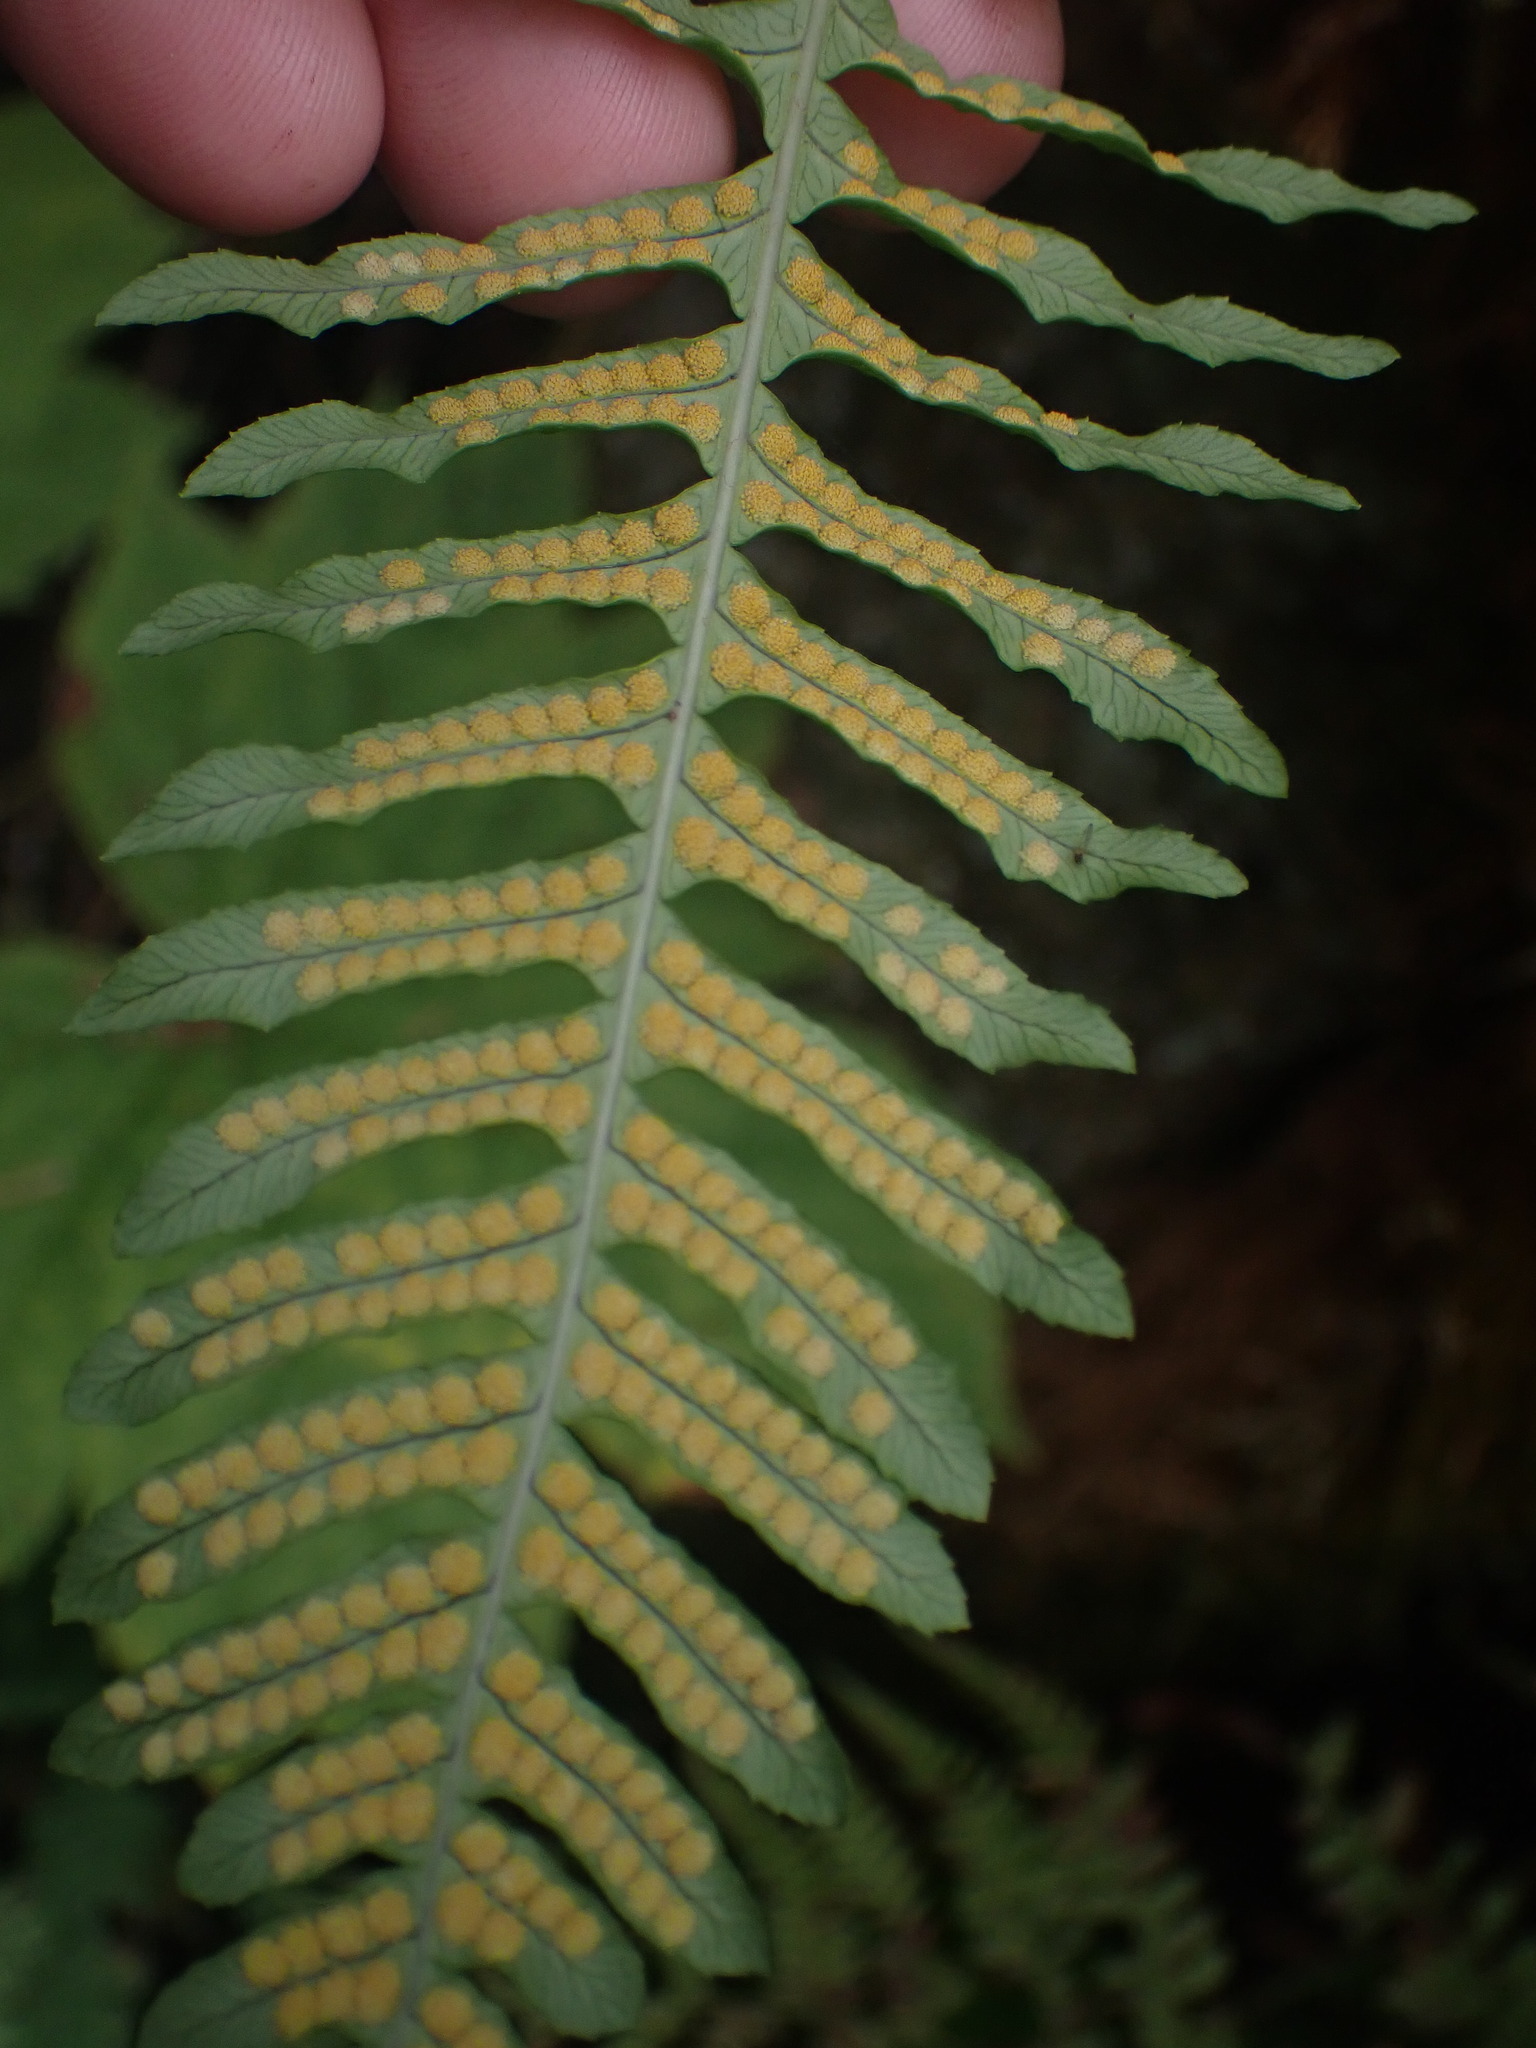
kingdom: Plantae
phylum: Tracheophyta
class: Polypodiopsida
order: Polypodiales
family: Polypodiaceae
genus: Polypodium
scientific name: Polypodium glycyrrhiza
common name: Licorice fern
